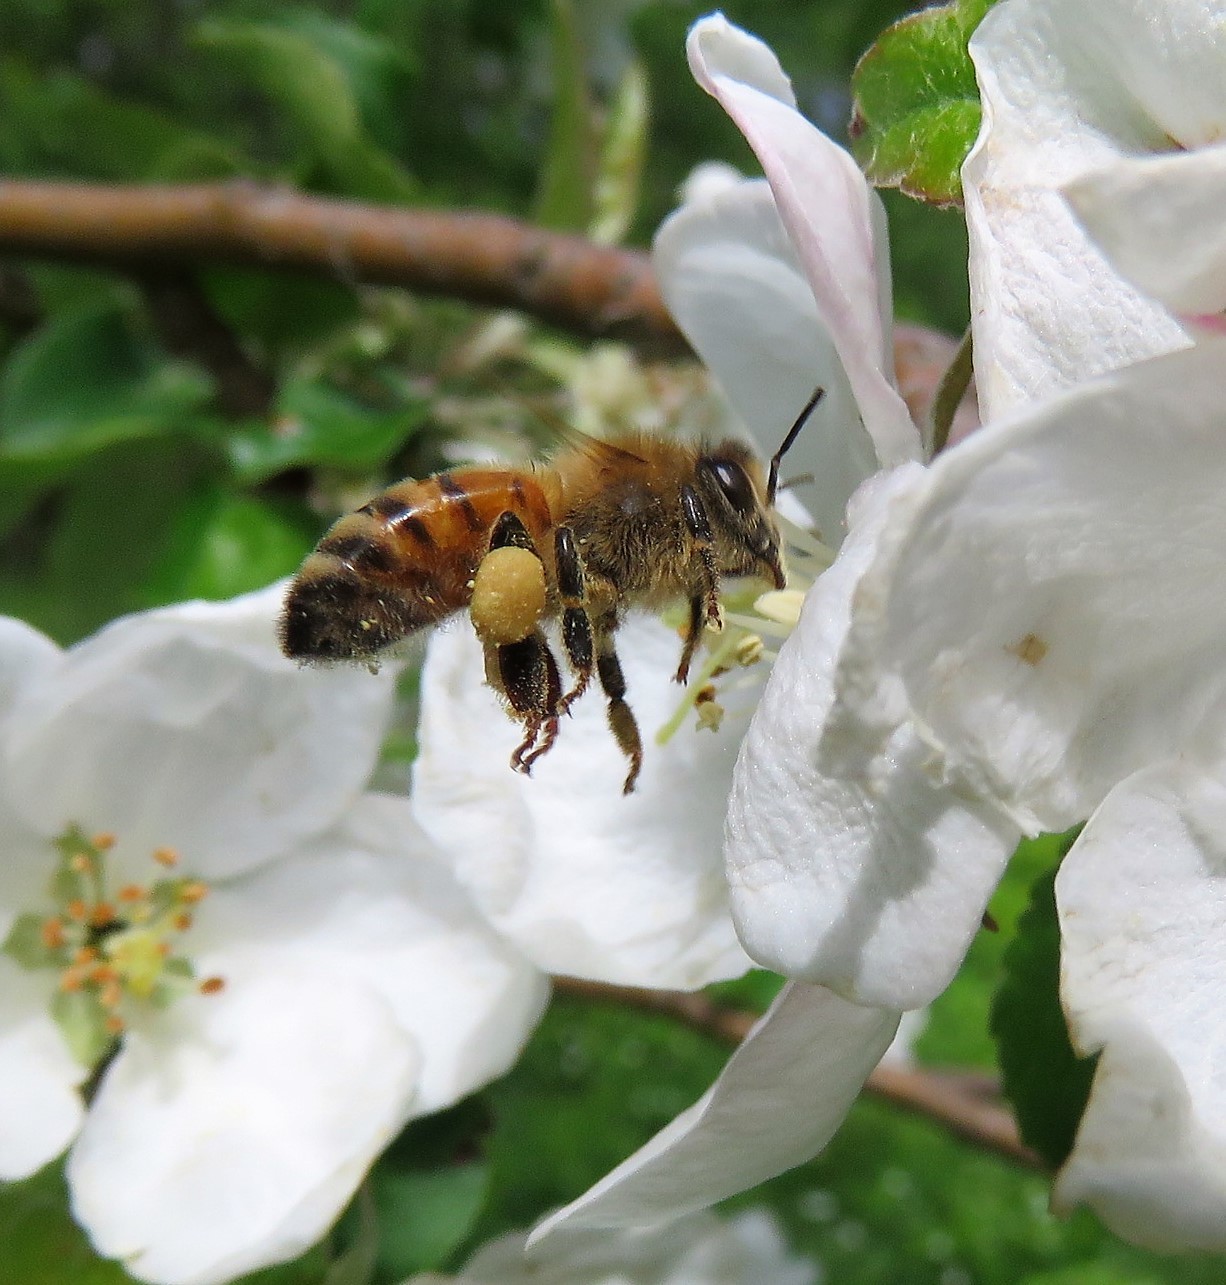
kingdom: Animalia
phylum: Arthropoda
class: Insecta
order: Hymenoptera
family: Apidae
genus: Apis
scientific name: Apis mellifera
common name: Honey bee
